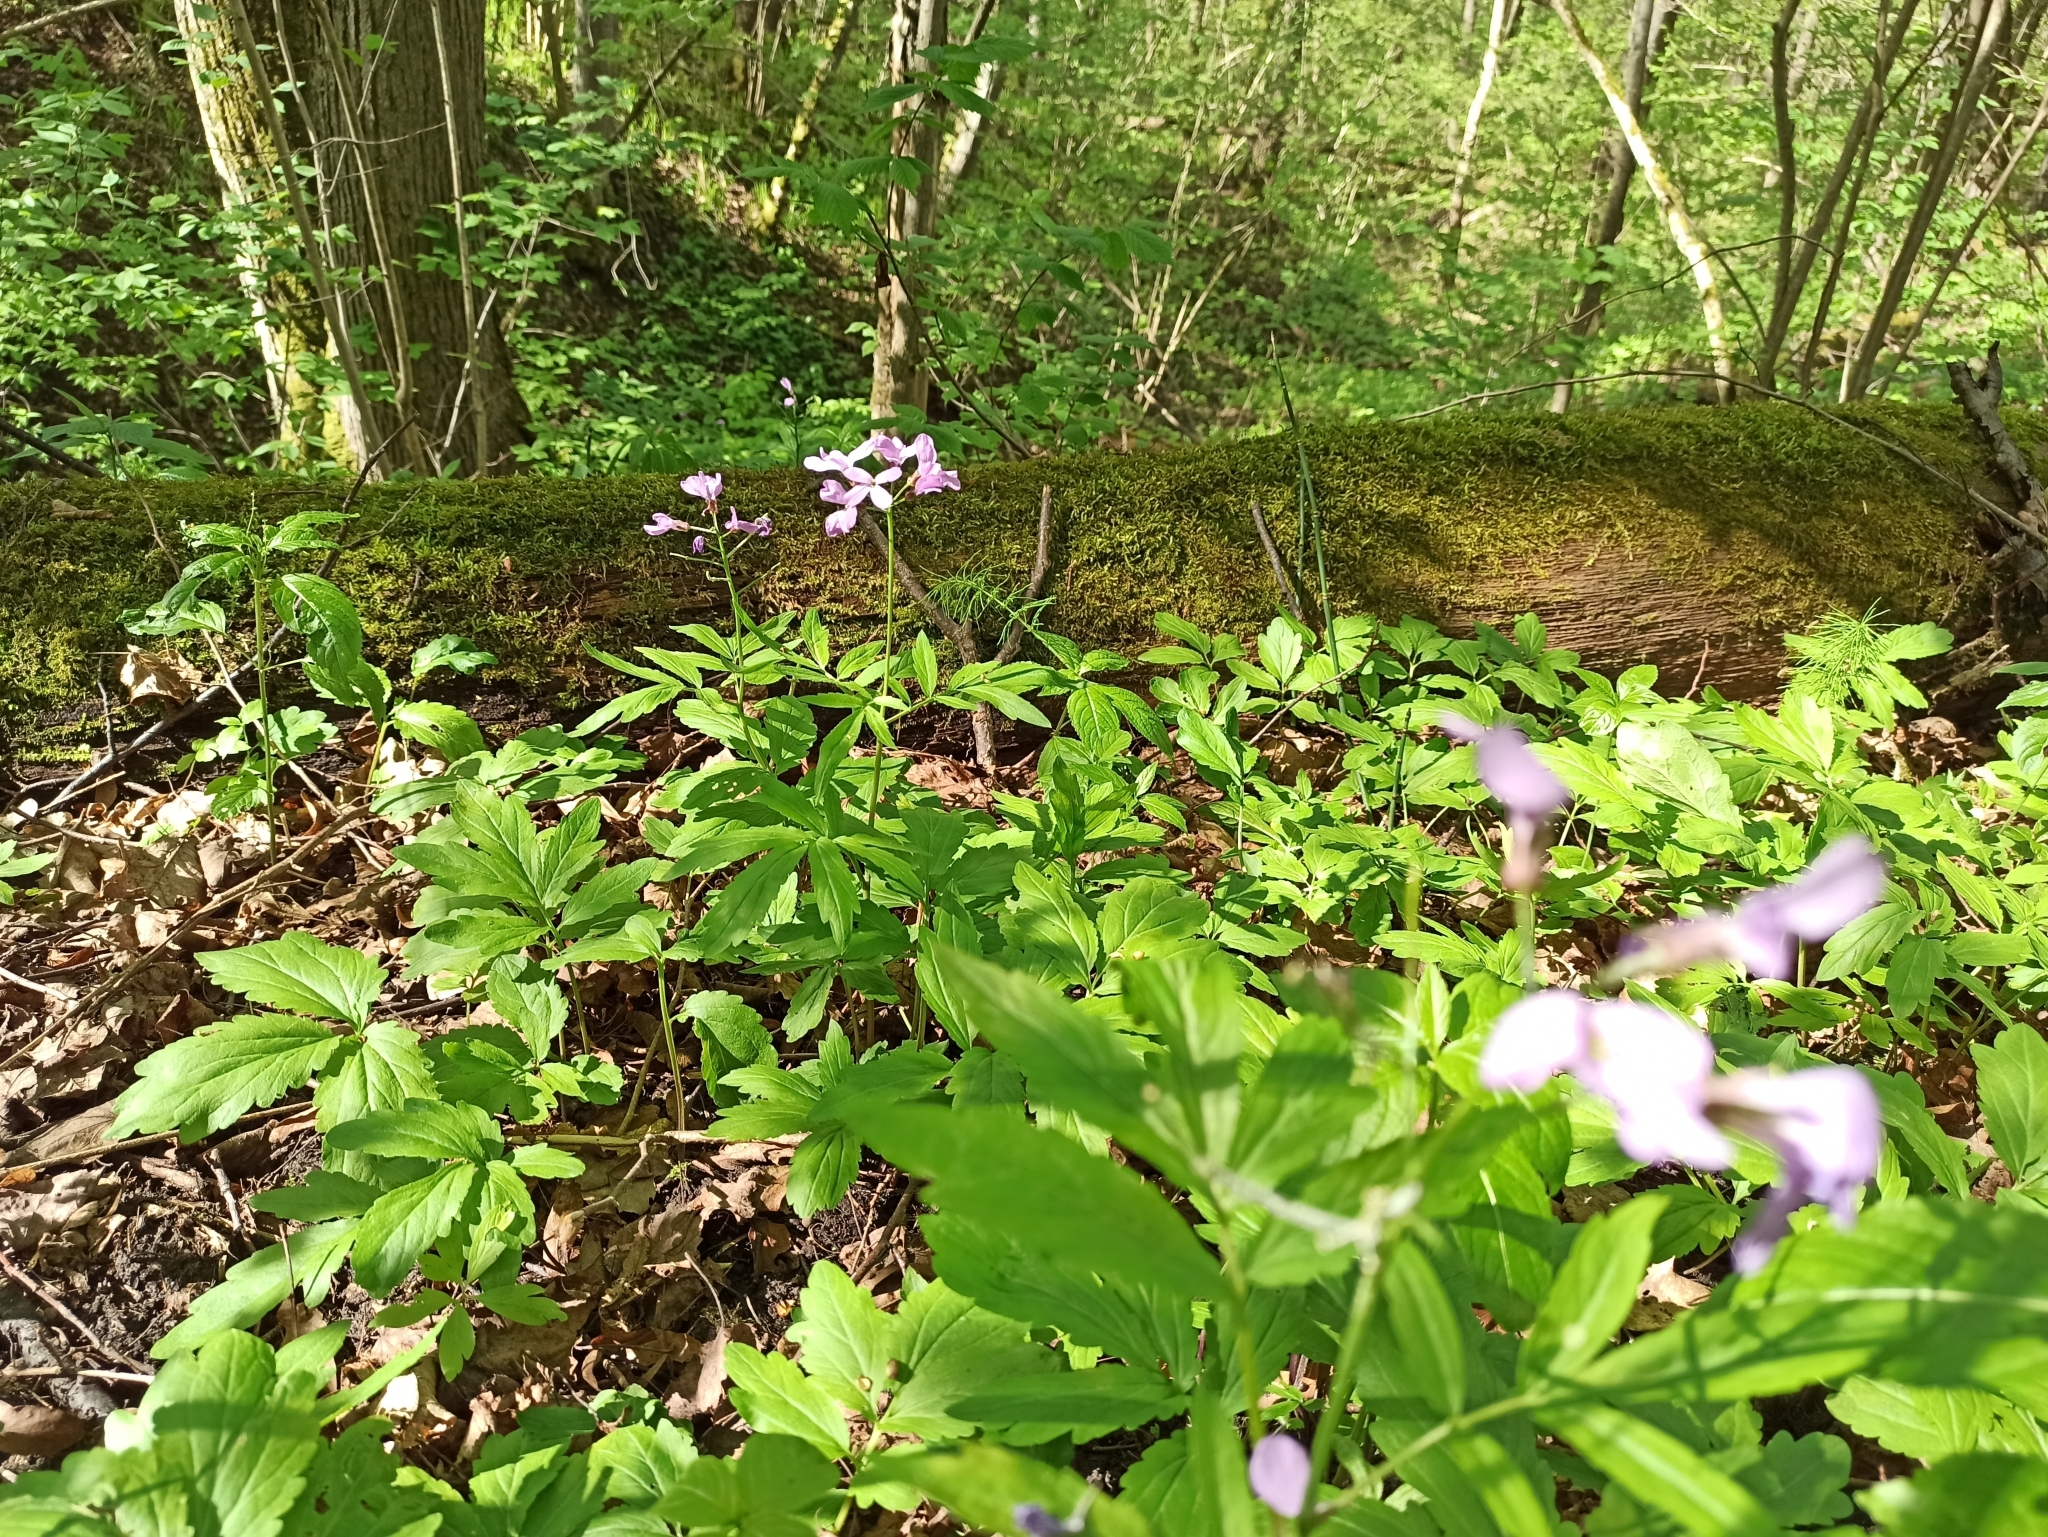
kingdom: Plantae
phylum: Tracheophyta
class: Magnoliopsida
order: Brassicales
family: Brassicaceae
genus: Cardamine
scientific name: Cardamine quinquefolia
